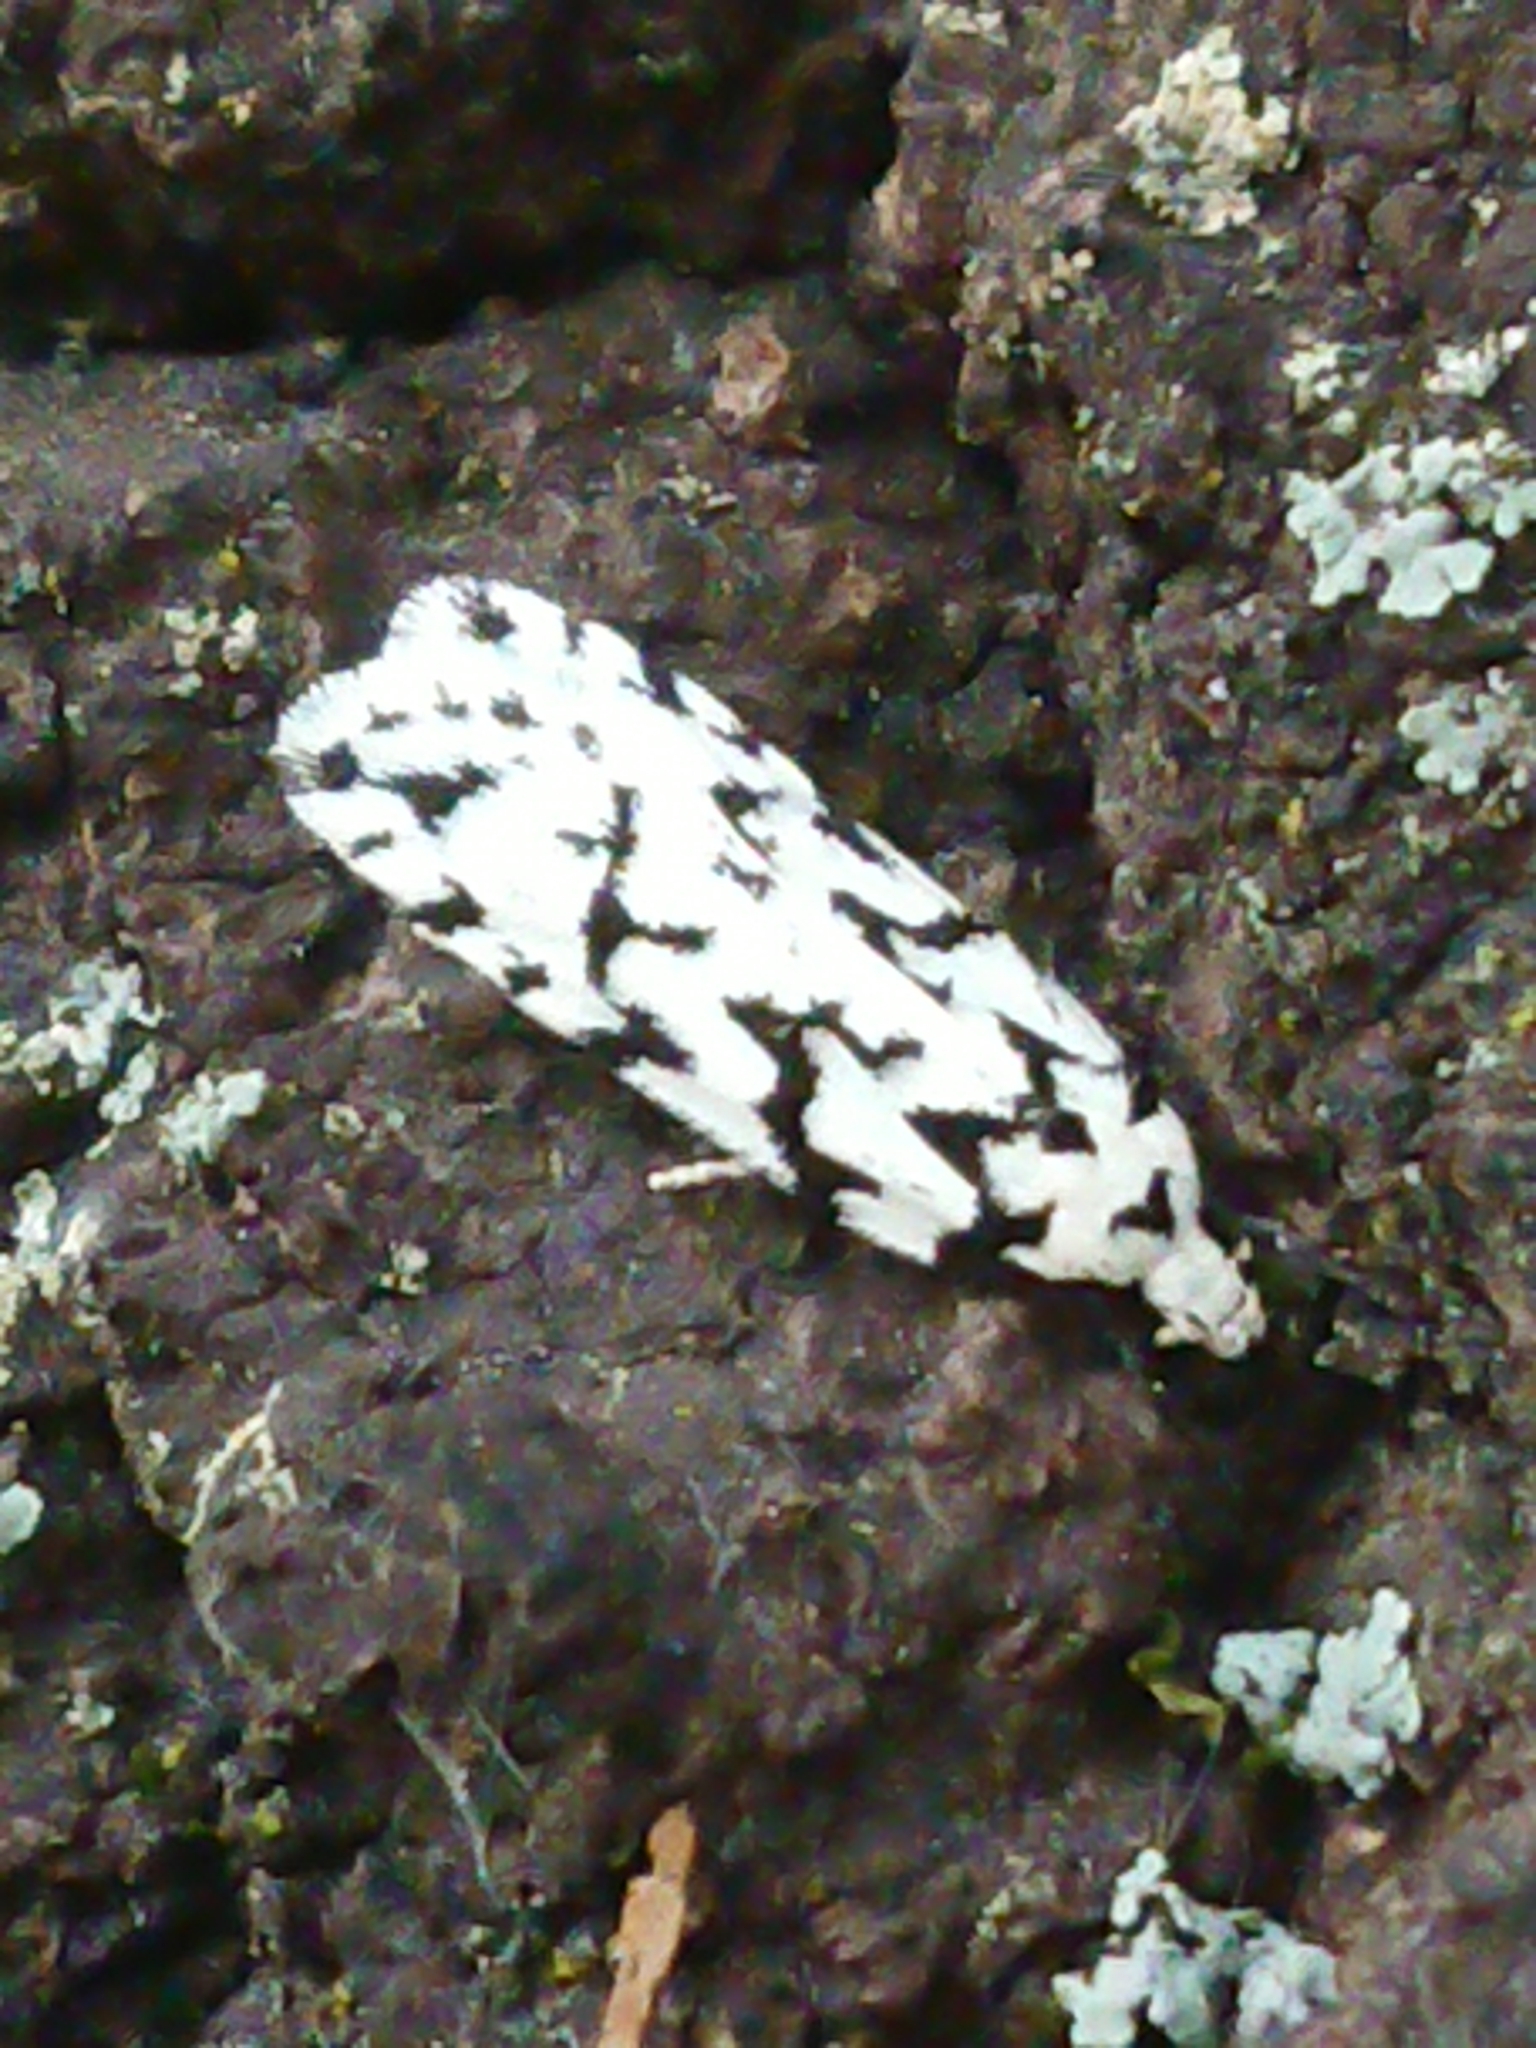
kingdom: Animalia
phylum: Arthropoda
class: Insecta
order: Lepidoptera
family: Oecophoridae
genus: Izatha
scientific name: Izatha katadiktya
